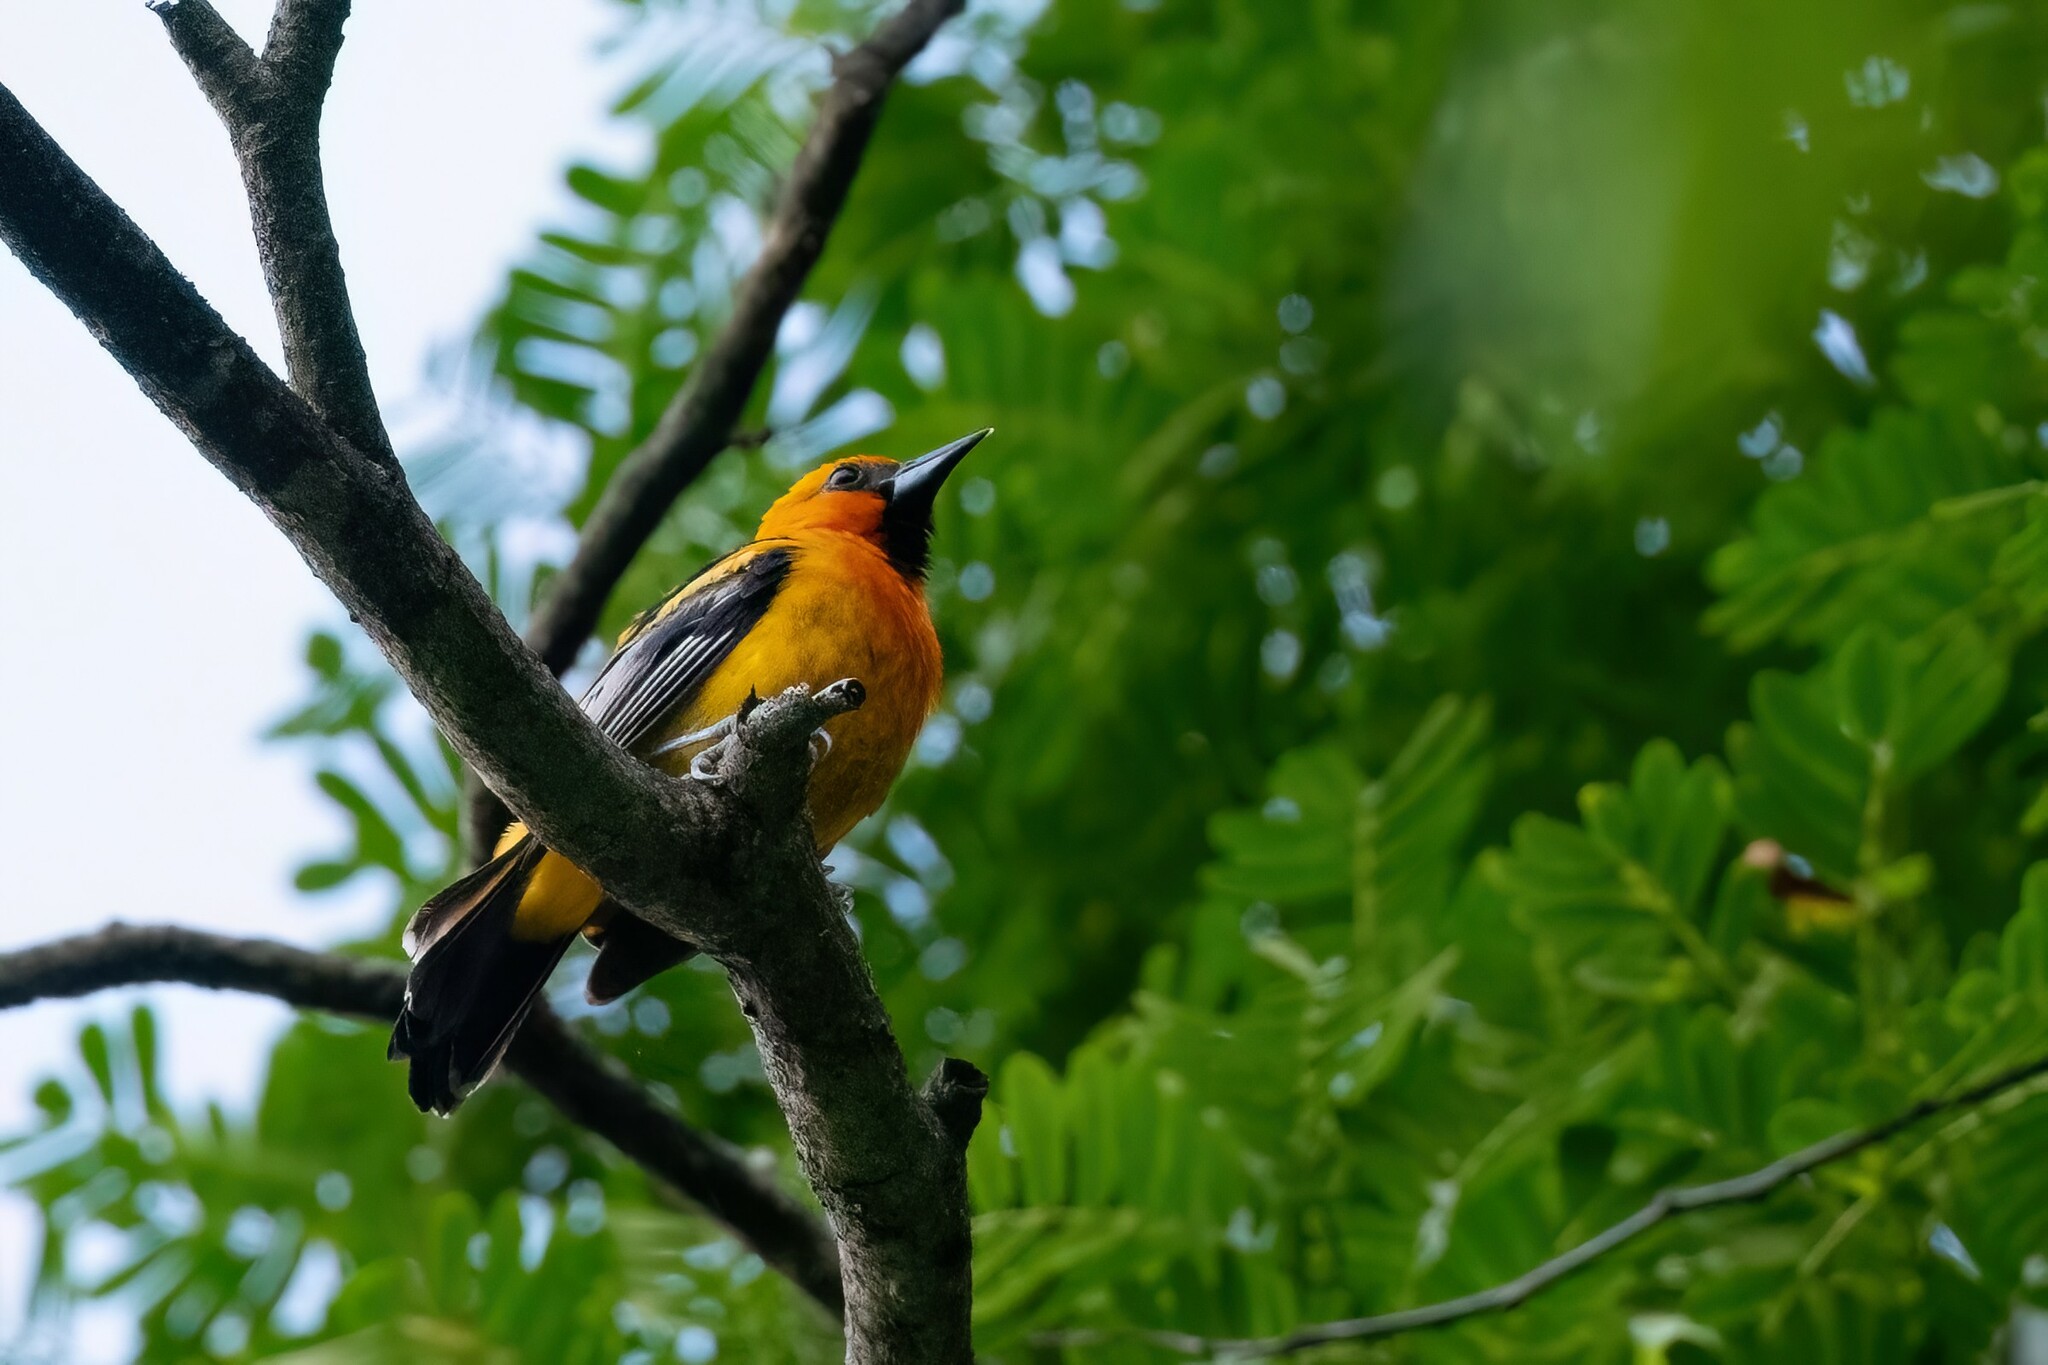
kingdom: Animalia
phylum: Chordata
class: Aves
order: Passeriformes
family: Icteridae
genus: Icterus
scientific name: Icterus pustulatus
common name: Streak-backed oriole
